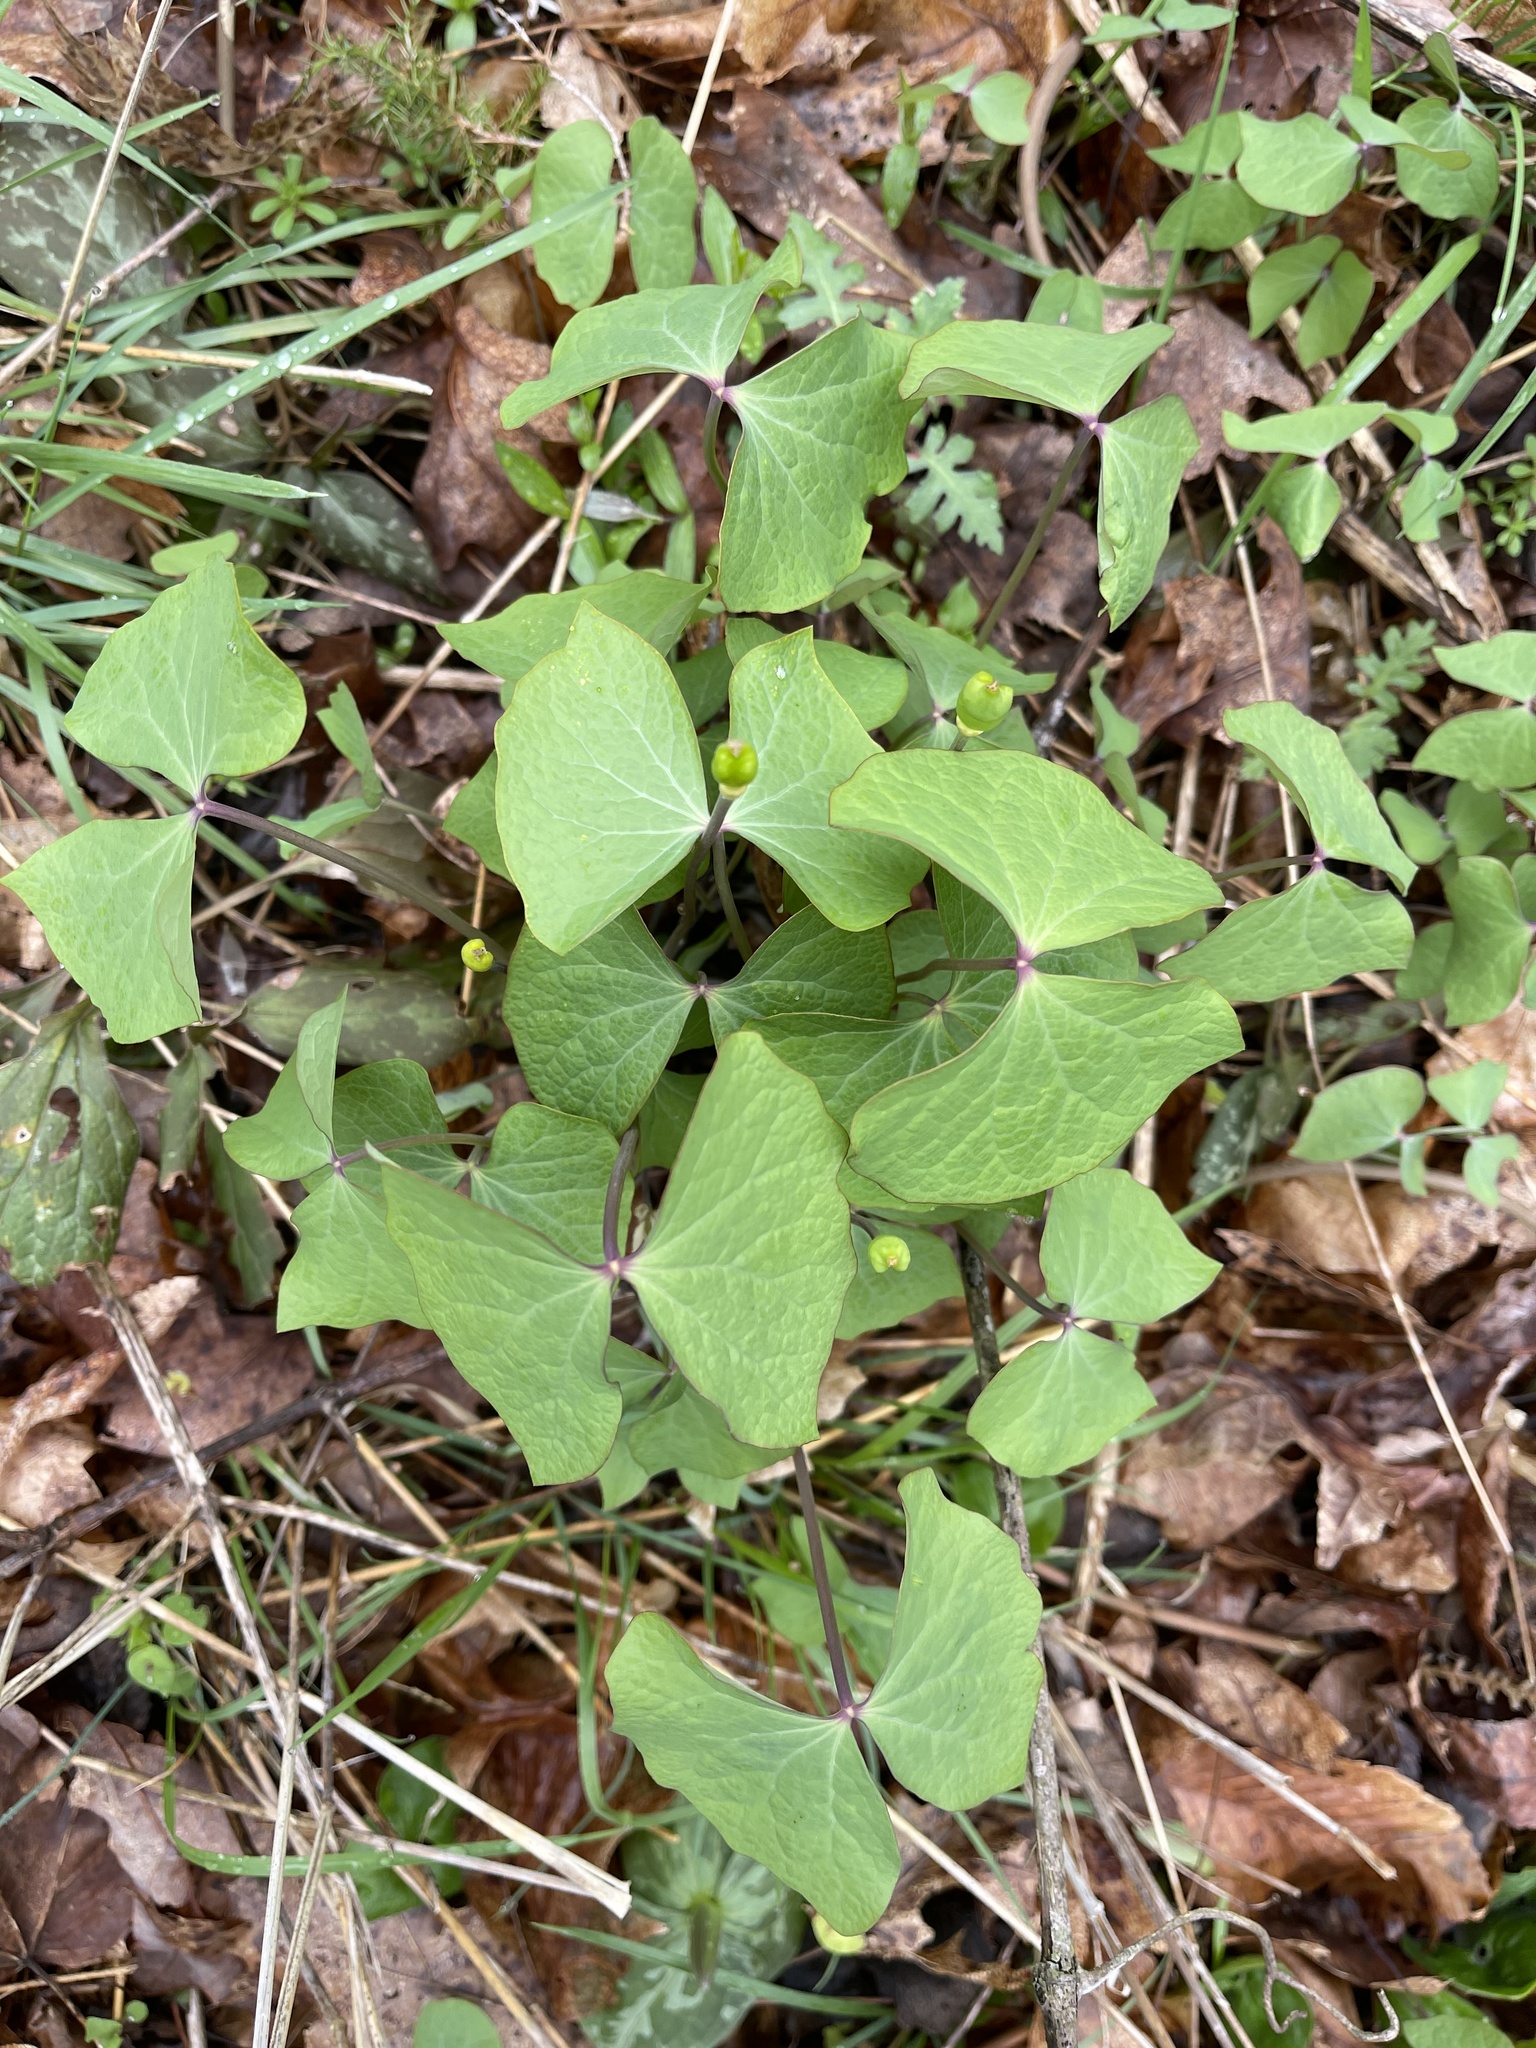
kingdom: Plantae
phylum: Tracheophyta
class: Magnoliopsida
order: Ranunculales
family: Berberidaceae
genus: Jeffersonia
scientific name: Jeffersonia diphylla
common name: Rheumatism-root
